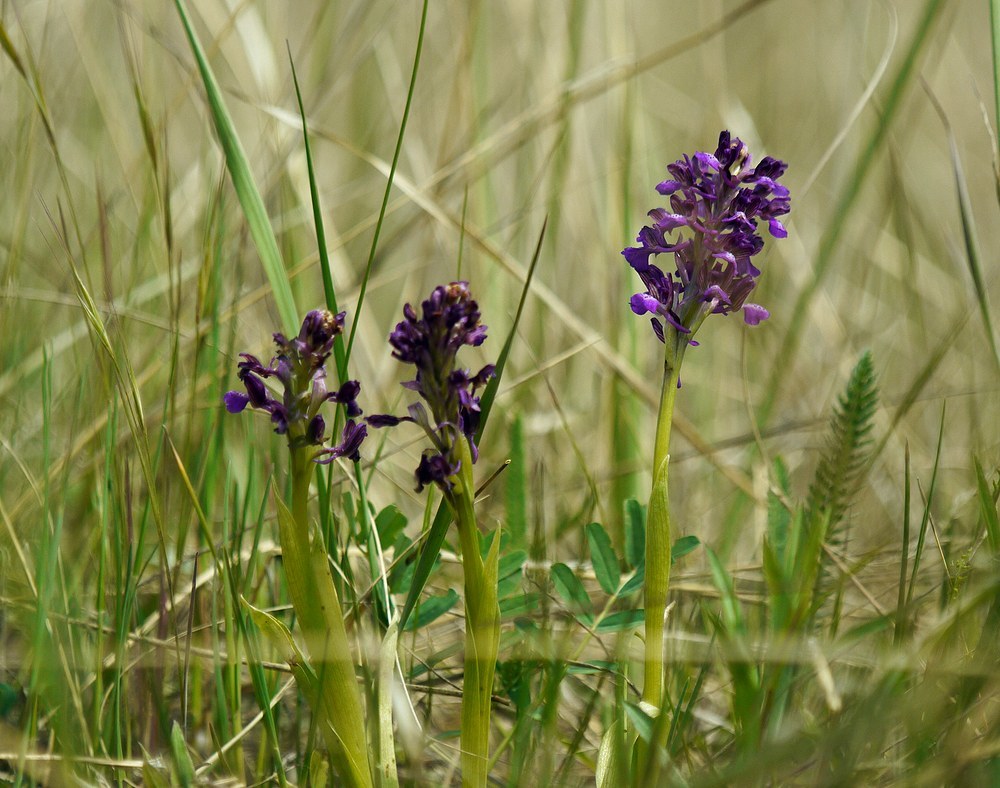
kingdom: Plantae
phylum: Tracheophyta
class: Liliopsida
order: Asparagales
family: Orchidaceae
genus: Anacamptis
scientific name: Anacamptis morio
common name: Green-winged orchid
